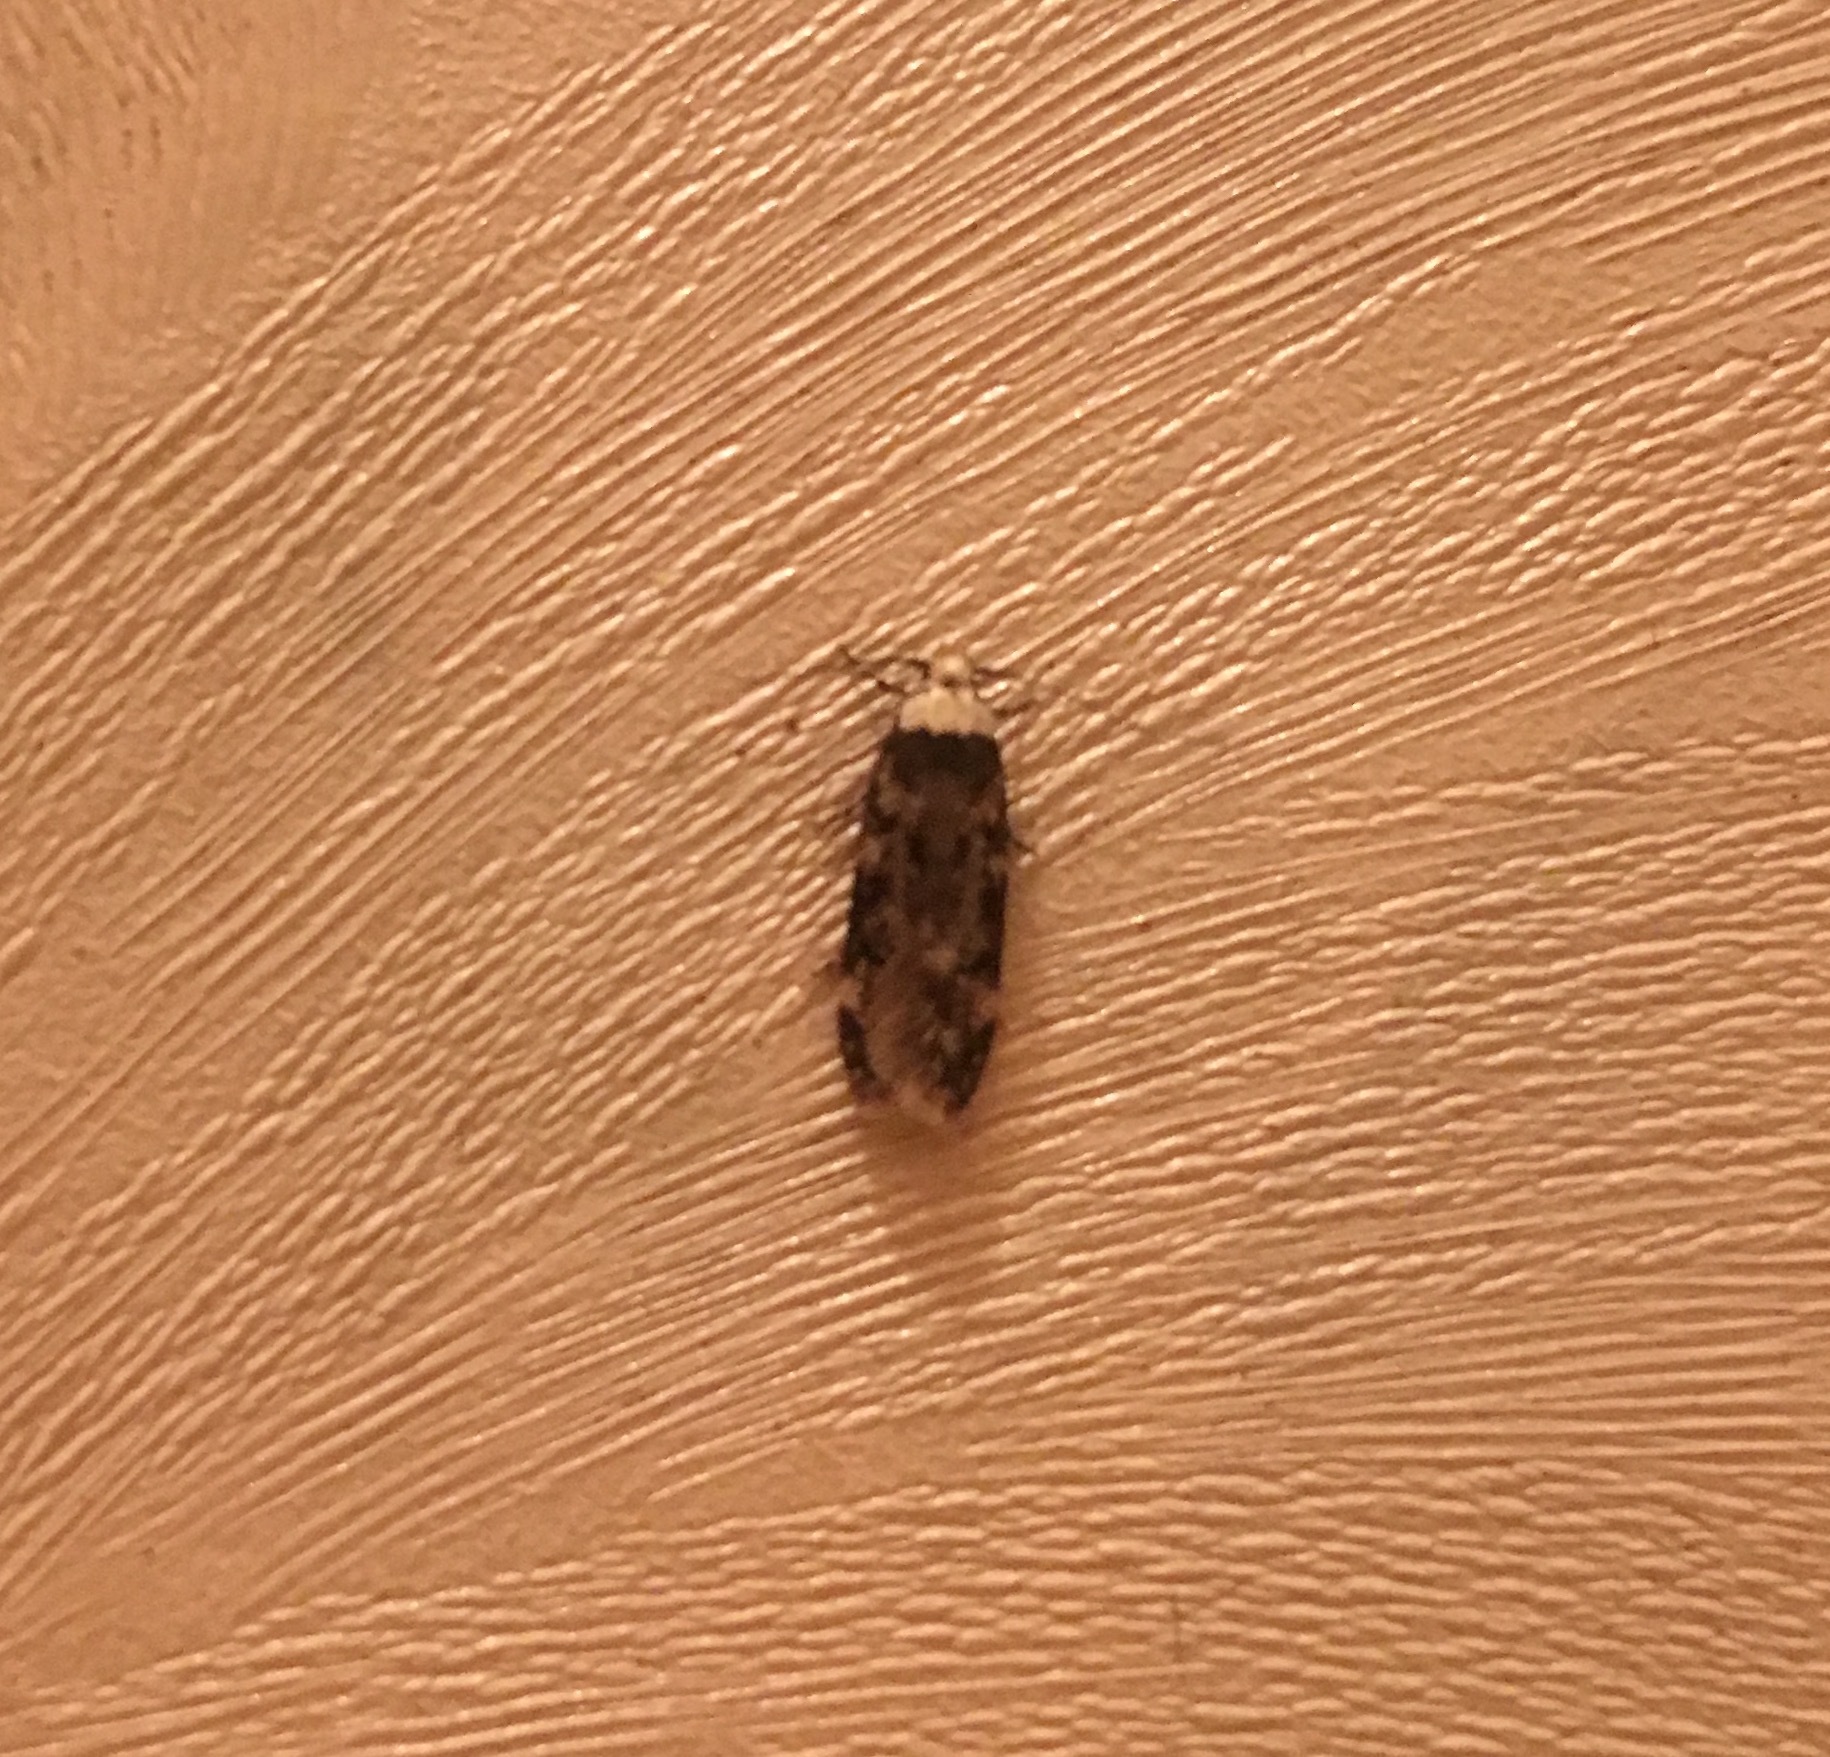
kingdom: Animalia
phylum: Arthropoda
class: Insecta
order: Lepidoptera
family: Oecophoridae
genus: Endrosis
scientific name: Endrosis sarcitrella
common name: White-shouldered house moth
